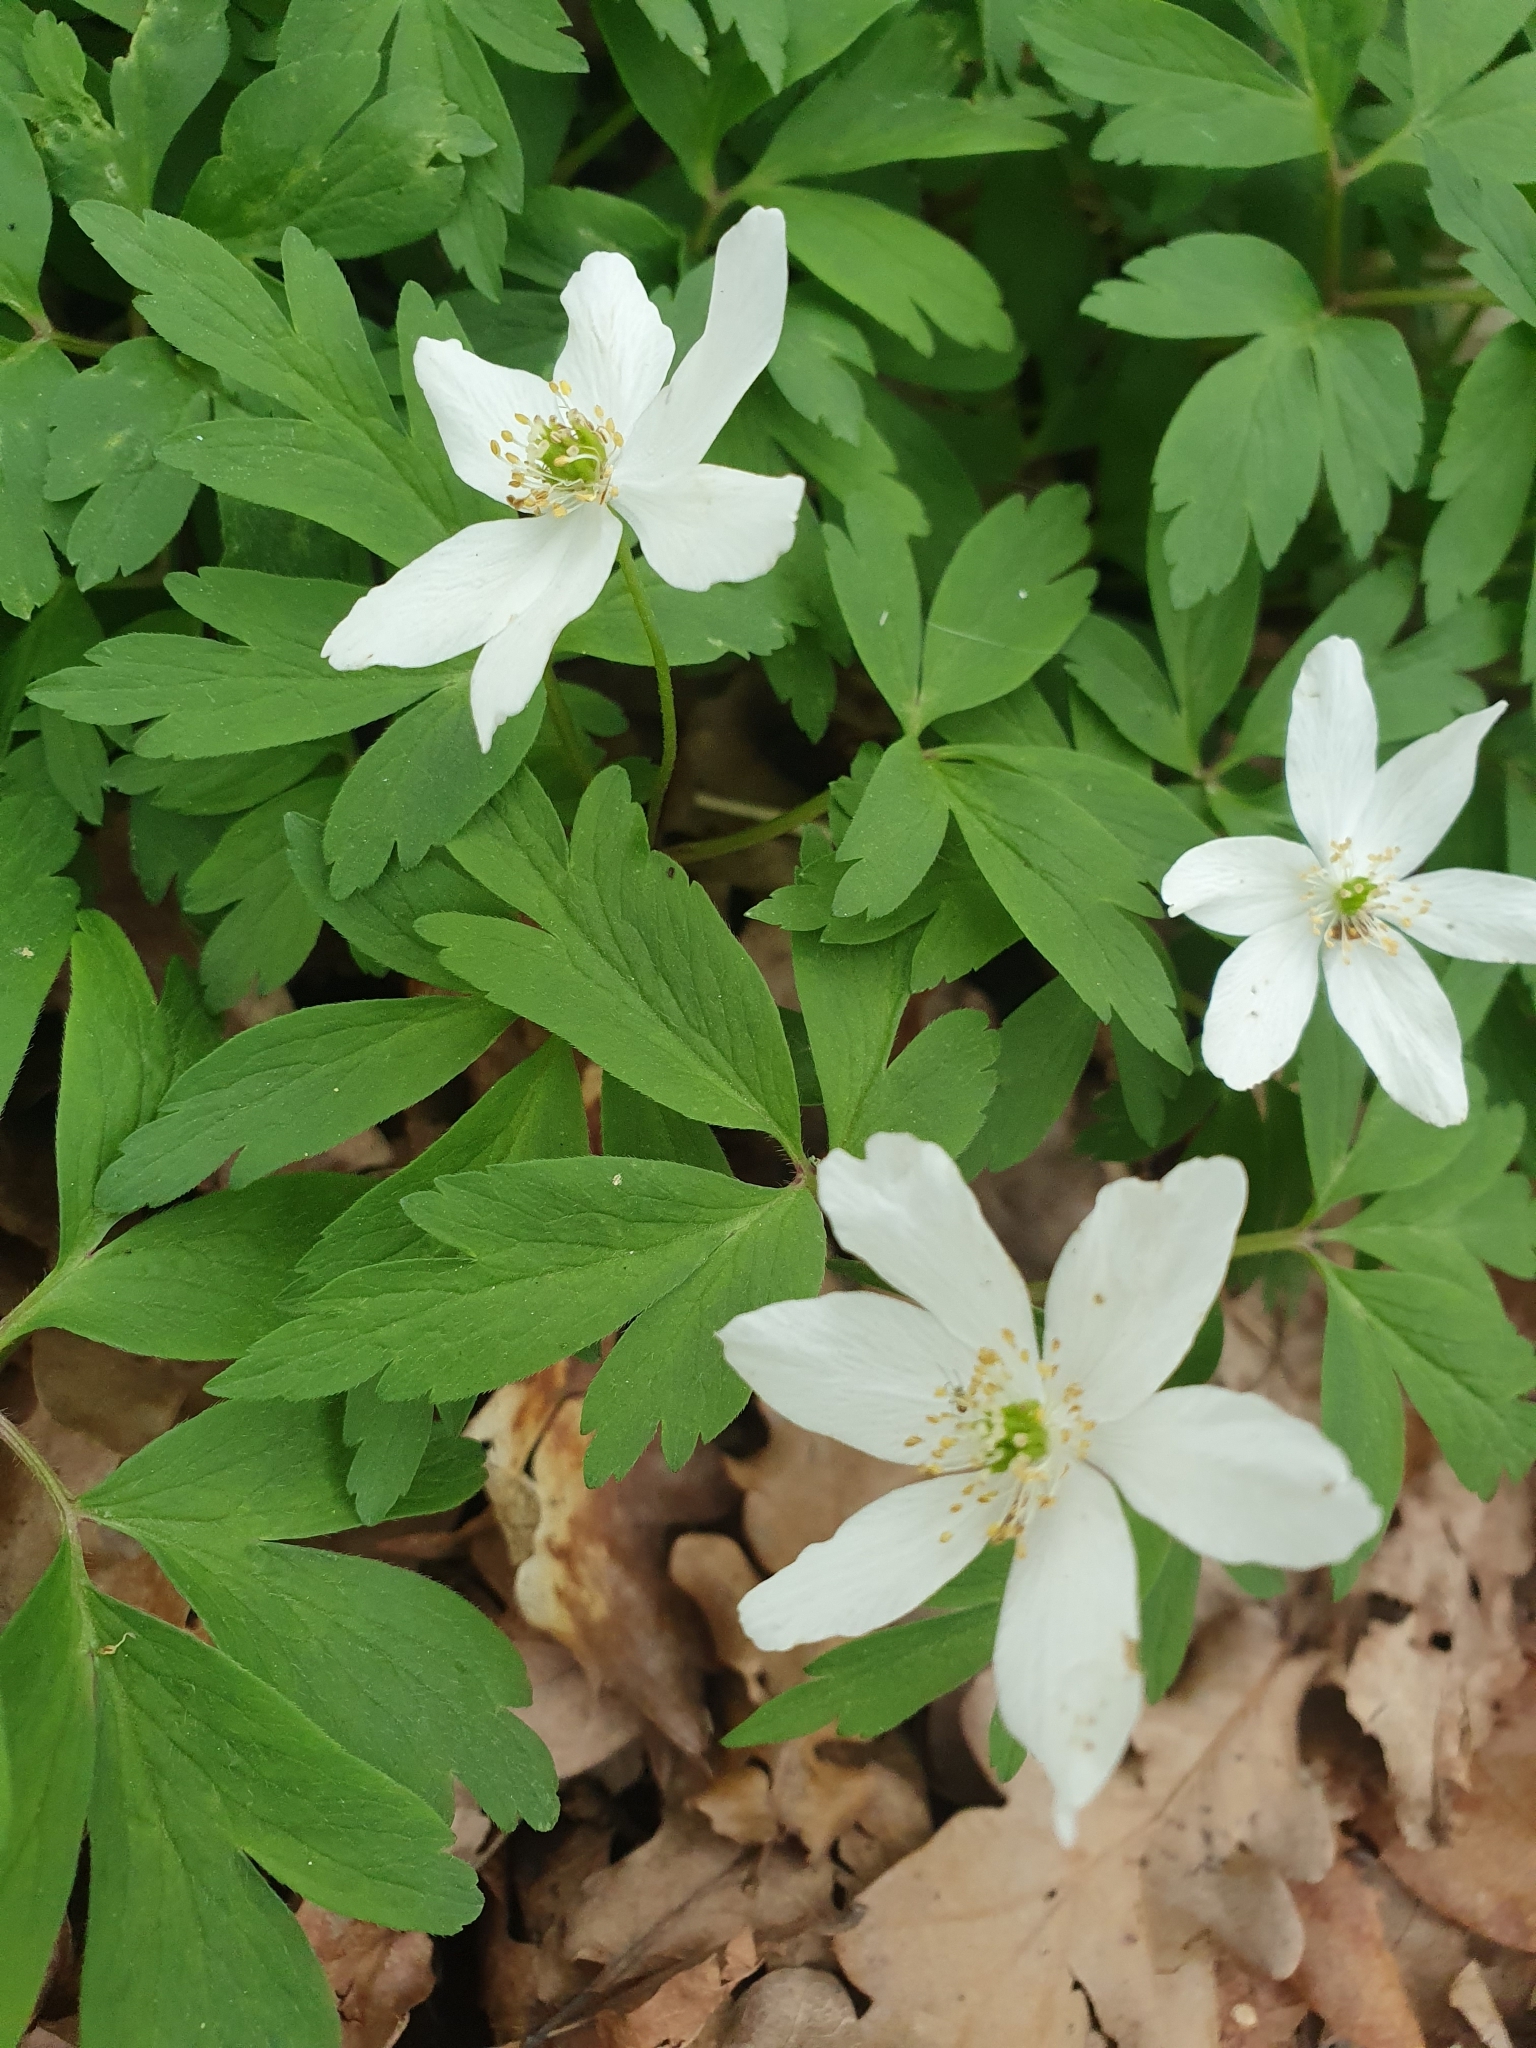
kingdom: Plantae
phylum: Tracheophyta
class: Magnoliopsida
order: Ranunculales
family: Ranunculaceae
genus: Anemone
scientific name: Anemone nemorosa
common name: Wood anemone
